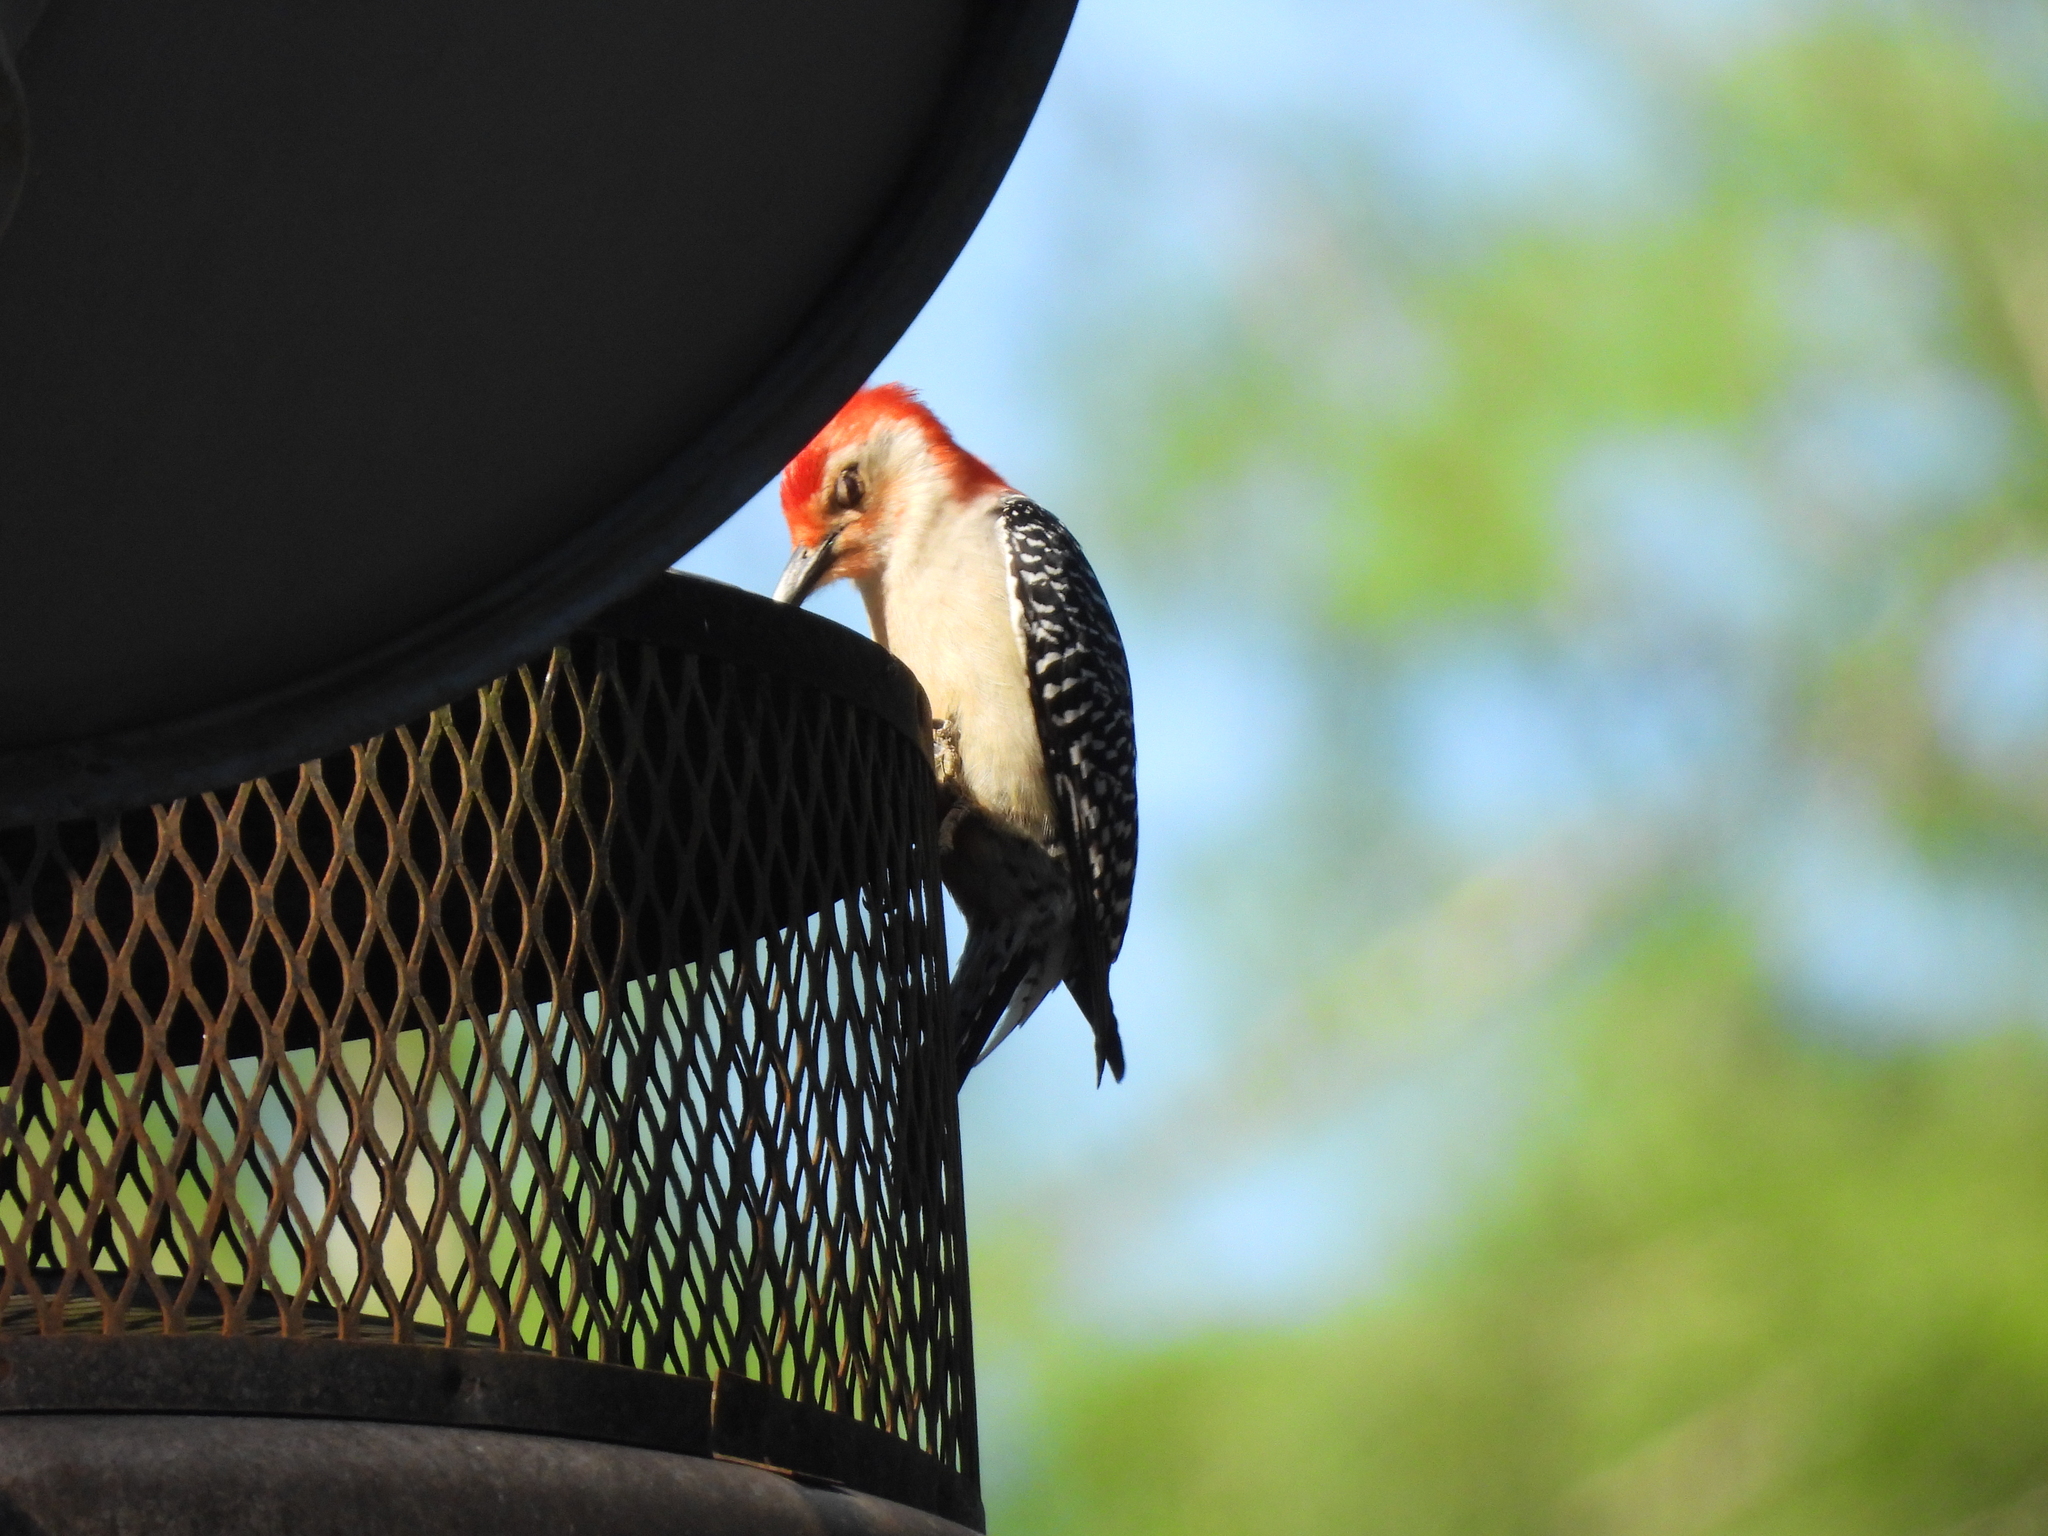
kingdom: Animalia
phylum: Chordata
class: Aves
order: Piciformes
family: Picidae
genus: Melanerpes
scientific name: Melanerpes carolinus
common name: Red-bellied woodpecker
